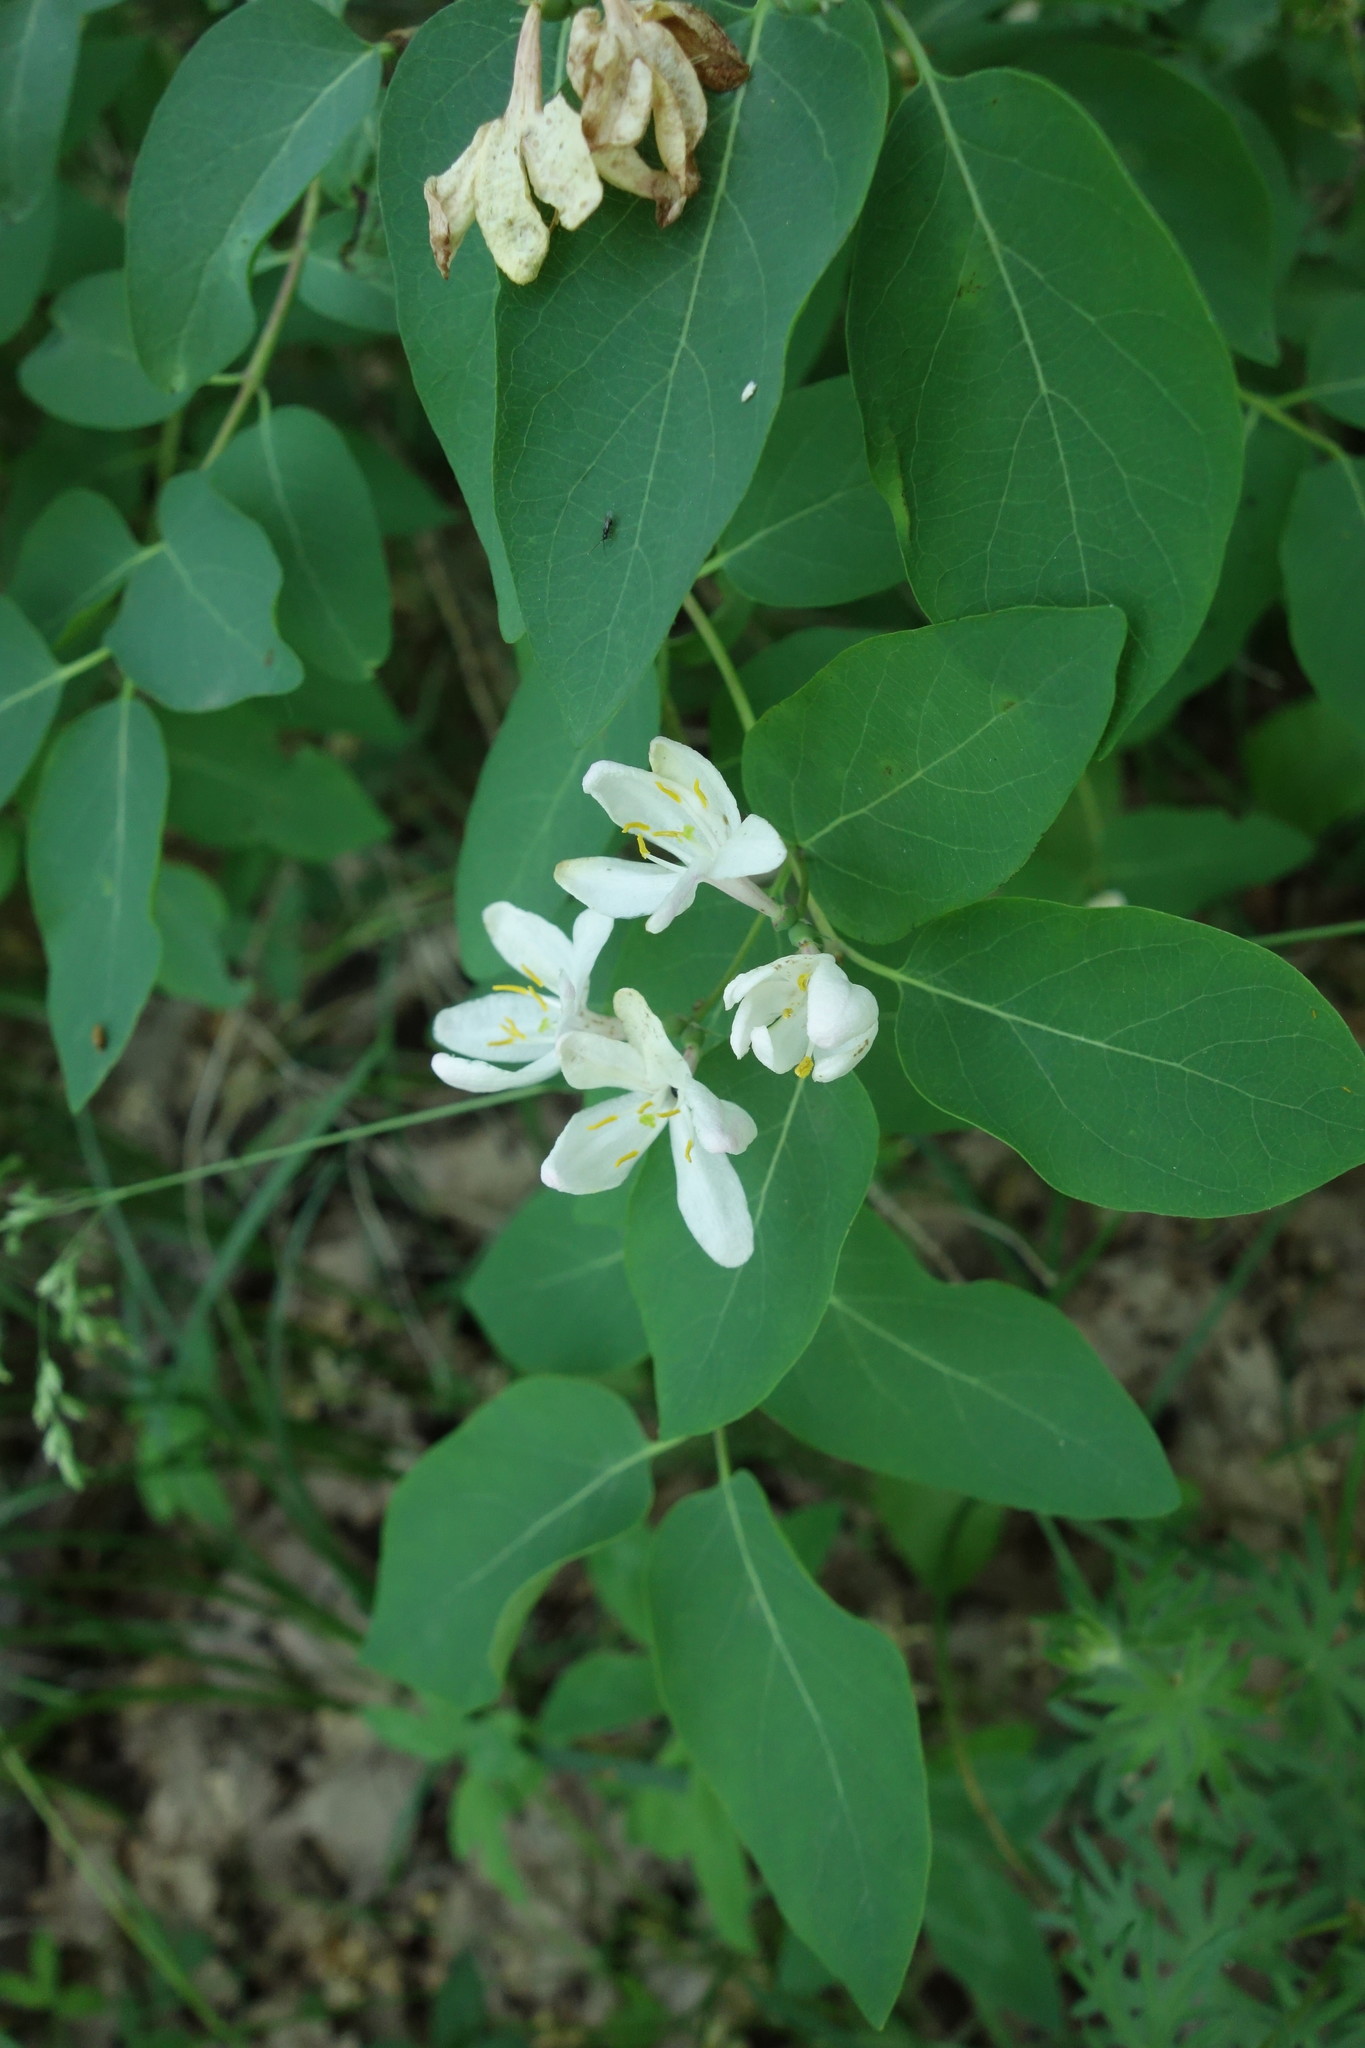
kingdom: Plantae
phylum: Tracheophyta
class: Magnoliopsida
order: Dipsacales
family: Caprifoliaceae
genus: Lonicera
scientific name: Lonicera tatarica
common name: Tatarian honeysuckle
